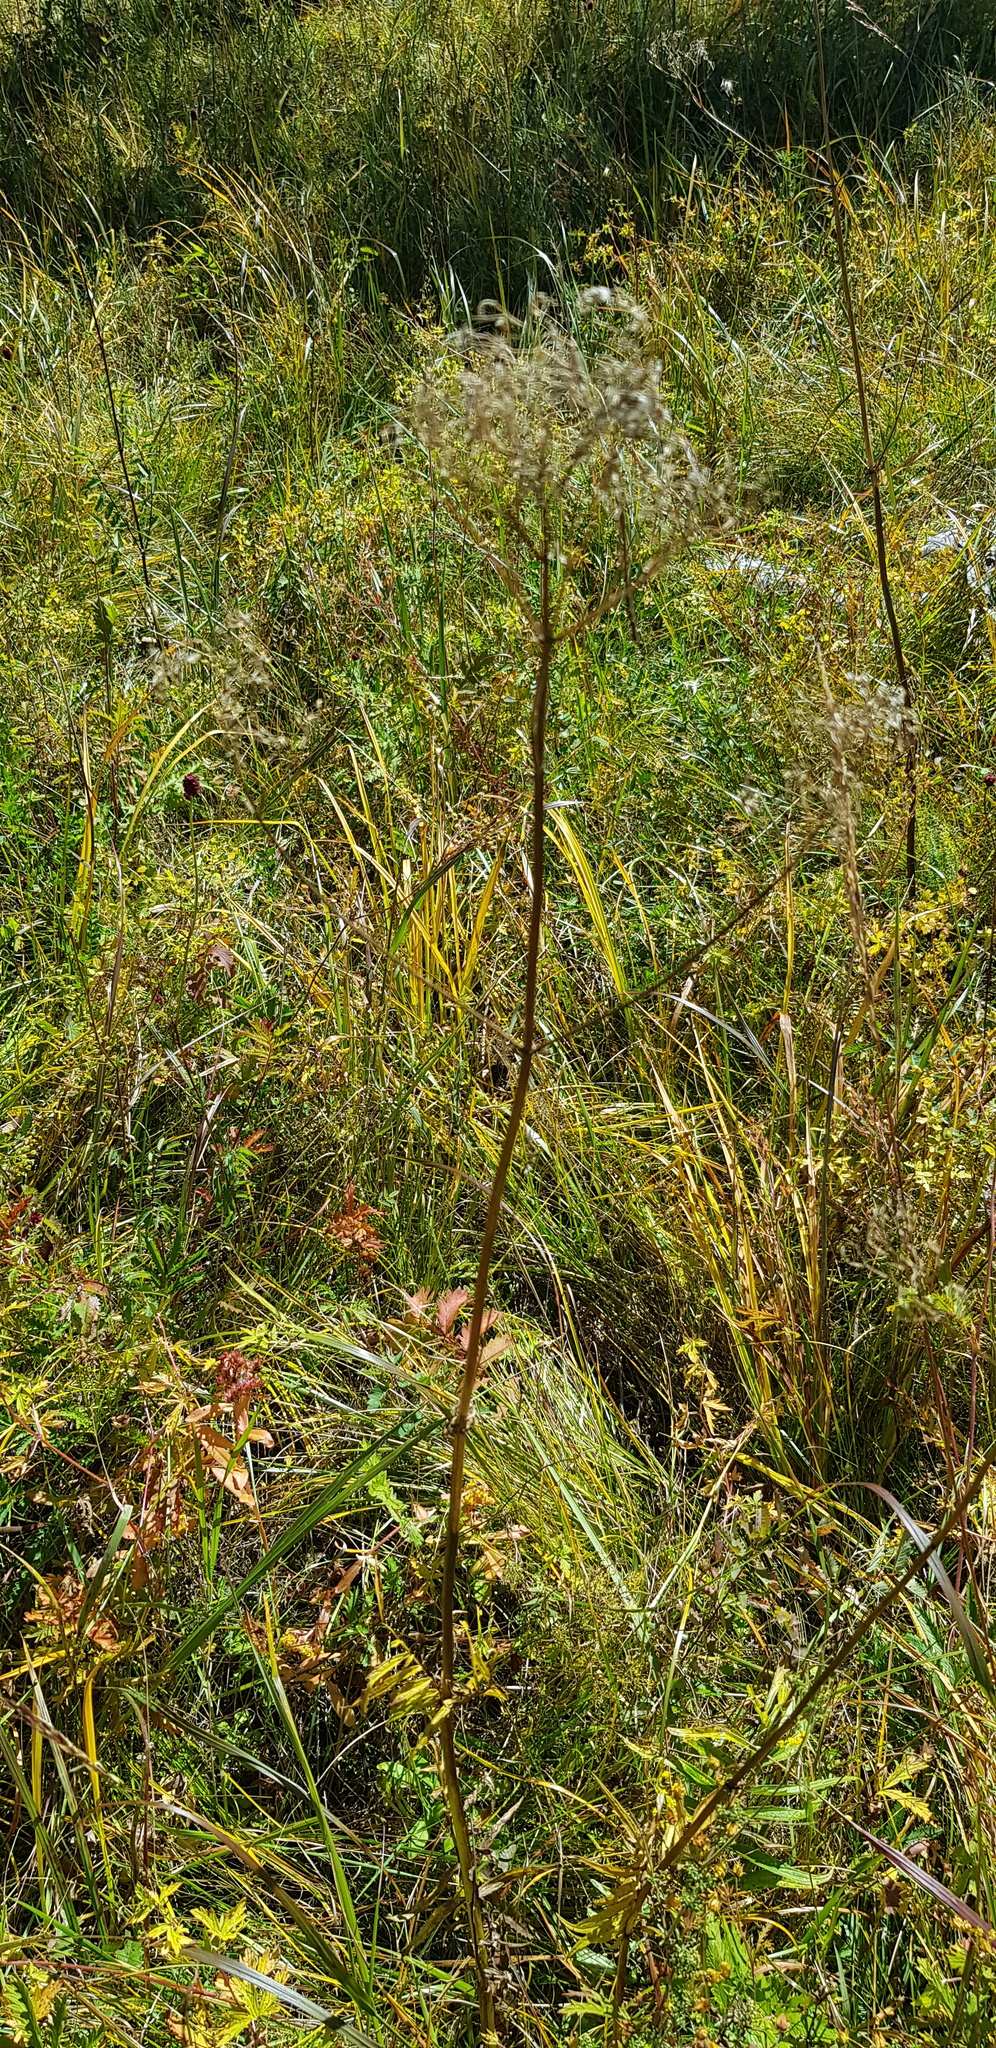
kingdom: Plantae
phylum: Tracheophyta
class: Magnoliopsida
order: Dipsacales
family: Caprifoliaceae
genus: Valeriana
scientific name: Valeriana officinalis
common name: Common valerian
